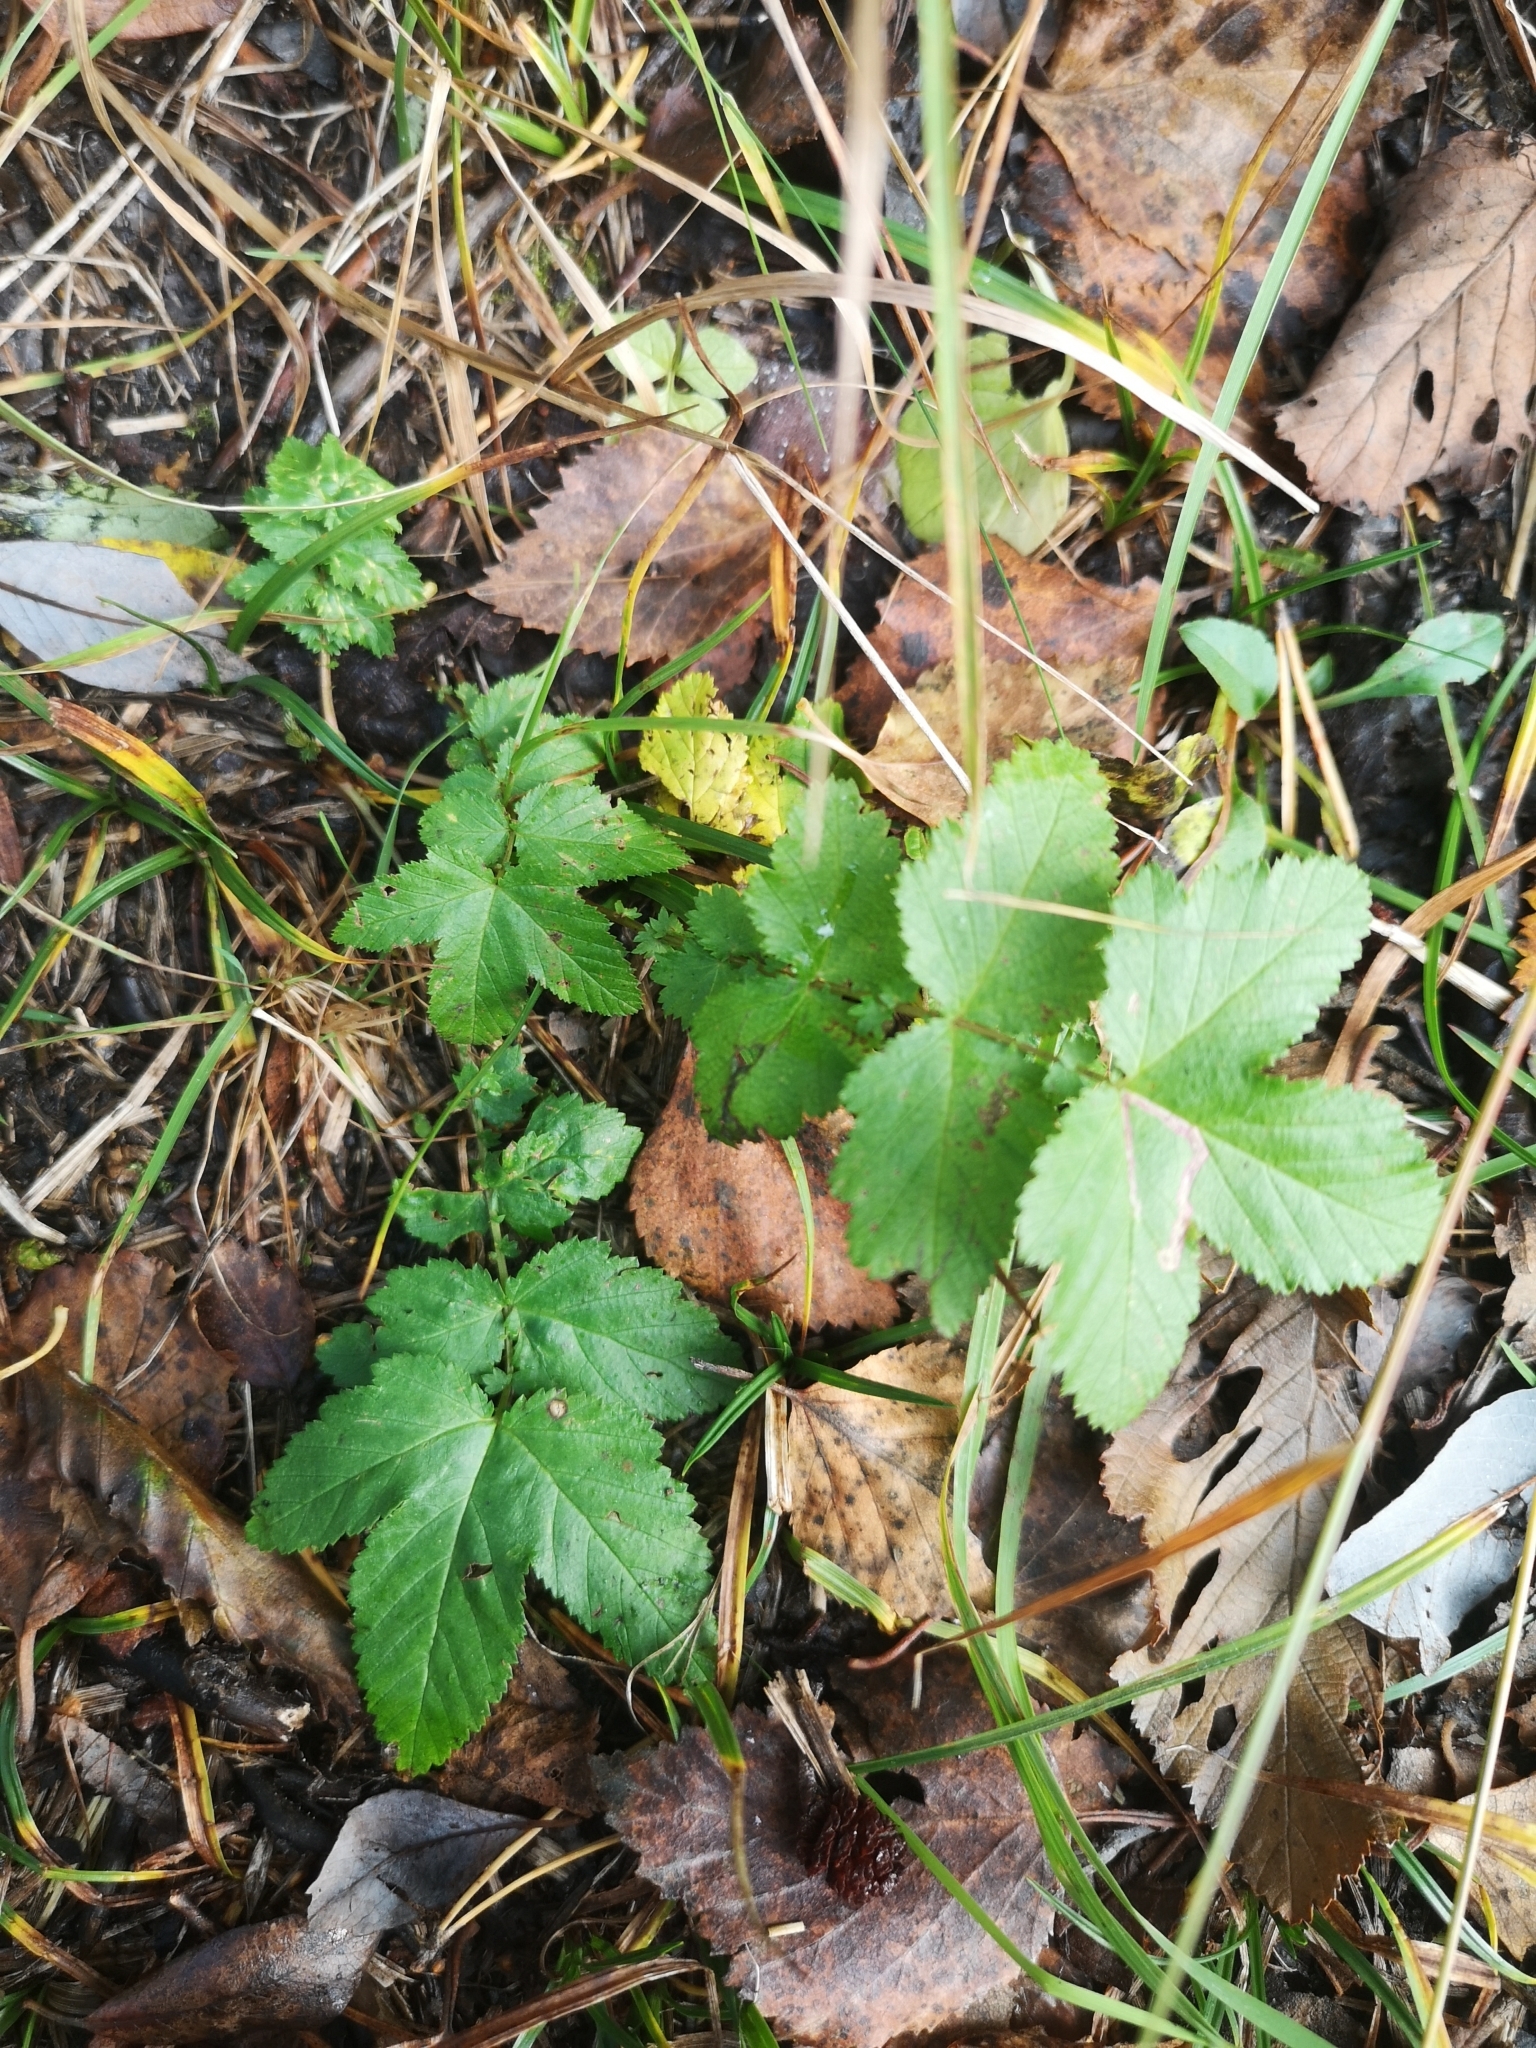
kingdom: Plantae
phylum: Tracheophyta
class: Magnoliopsida
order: Rosales
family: Rosaceae
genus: Filipendula
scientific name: Filipendula ulmaria
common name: Meadowsweet
